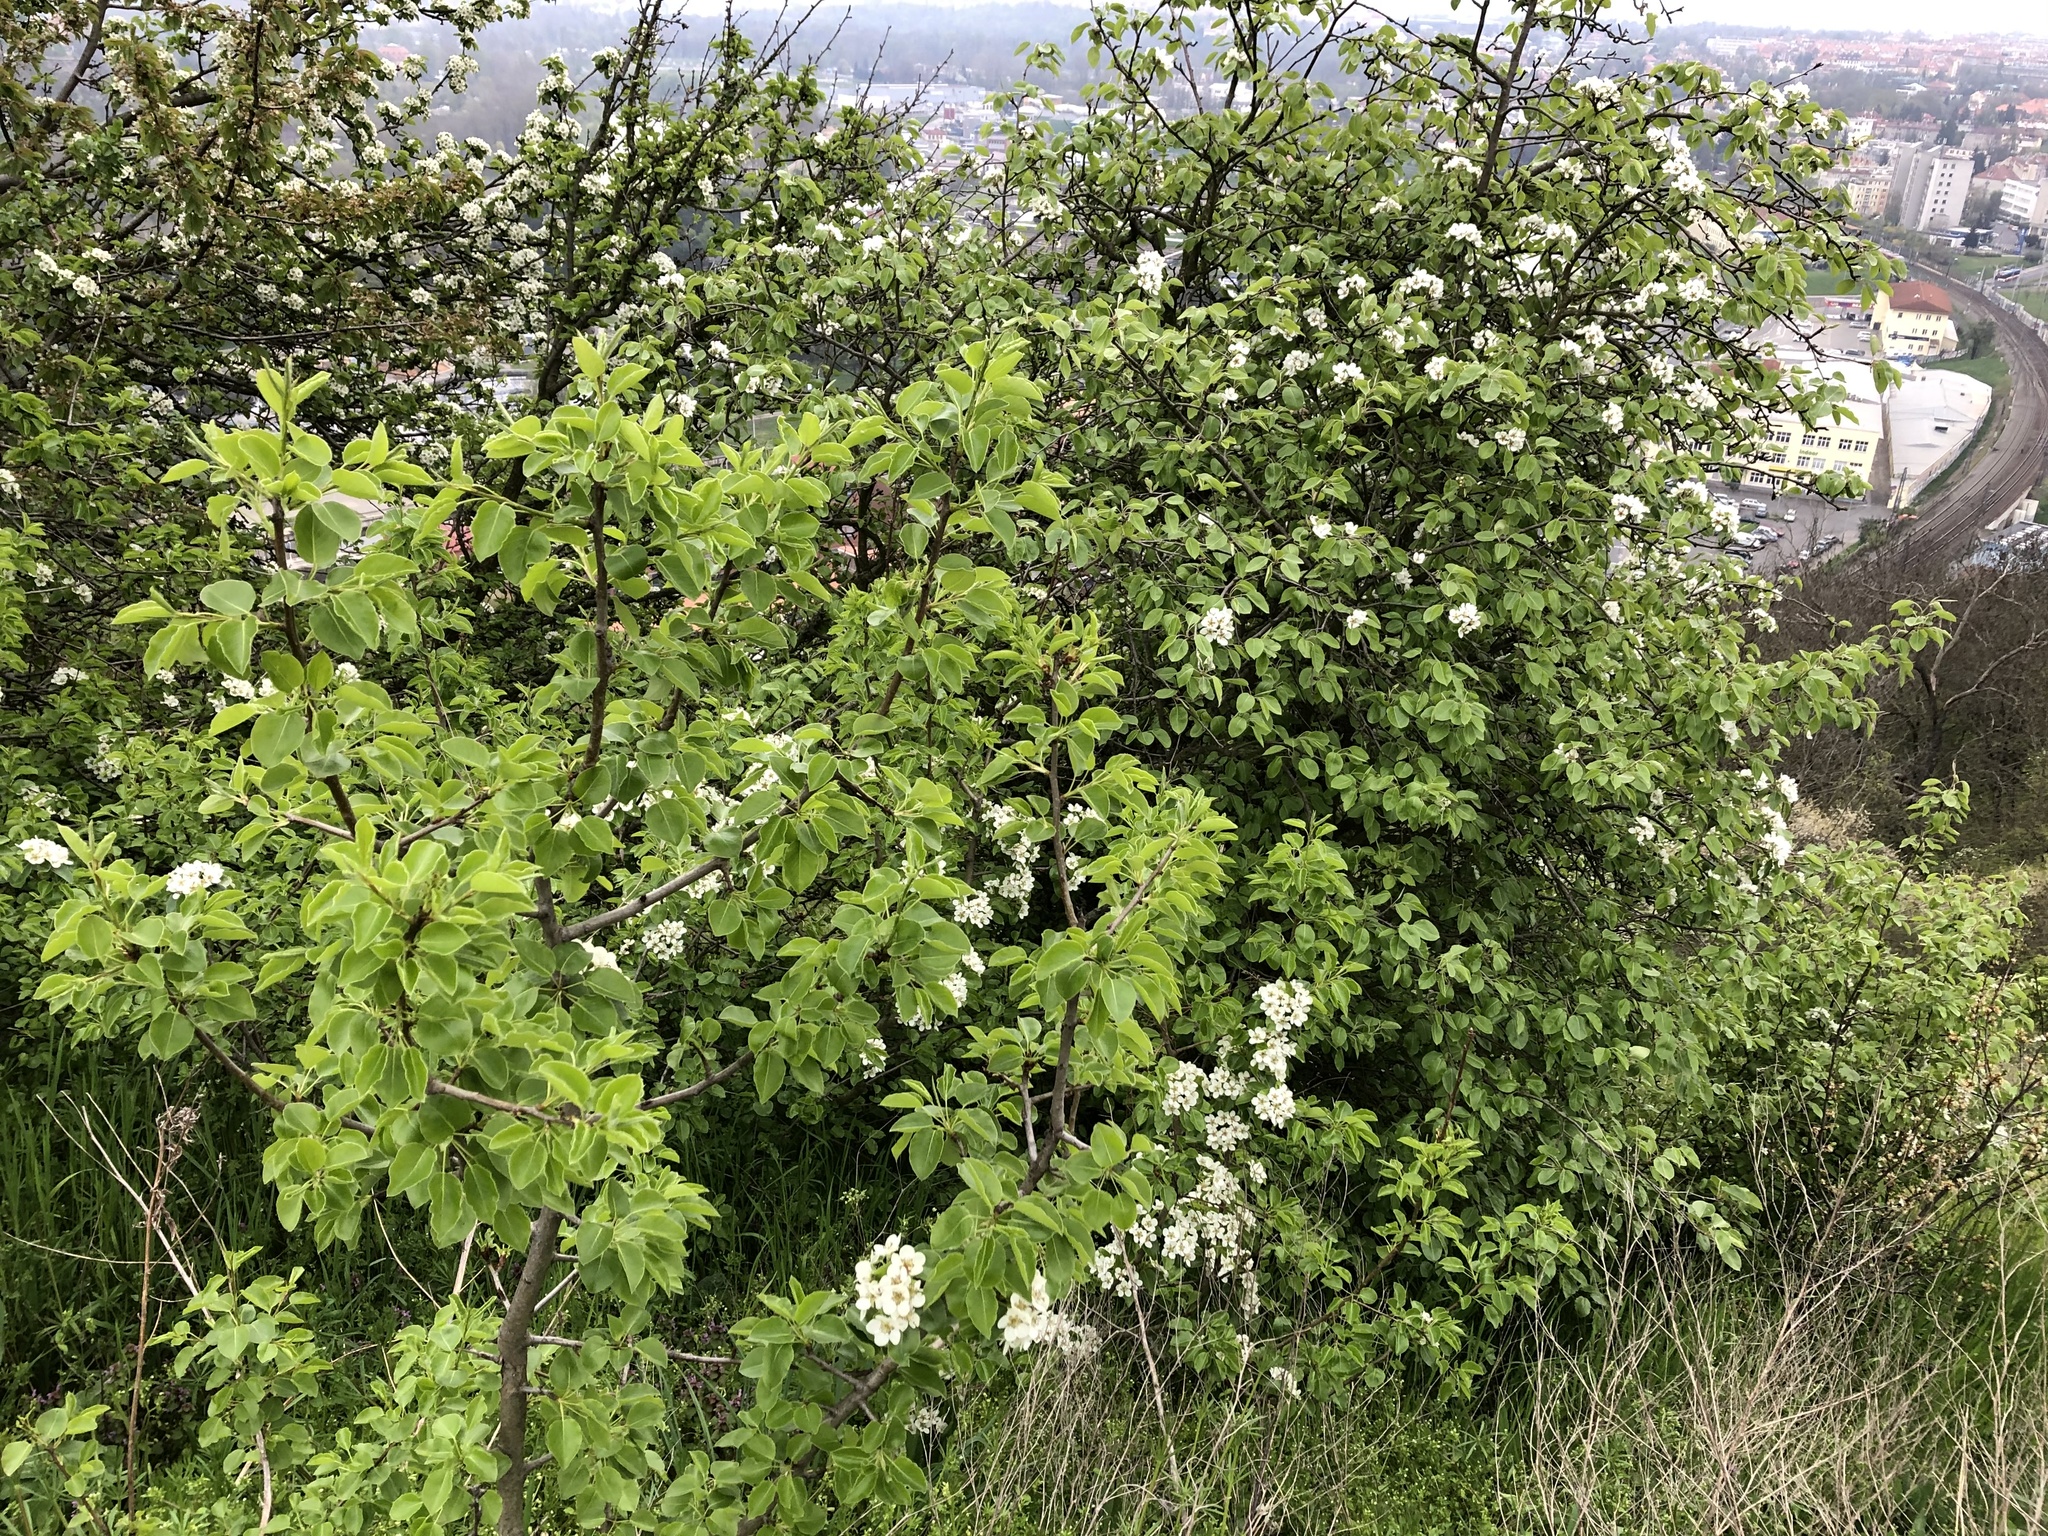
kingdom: Plantae
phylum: Tracheophyta
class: Magnoliopsida
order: Rosales
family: Rosaceae
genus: Pyrus
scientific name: Pyrus communis
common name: Pear
